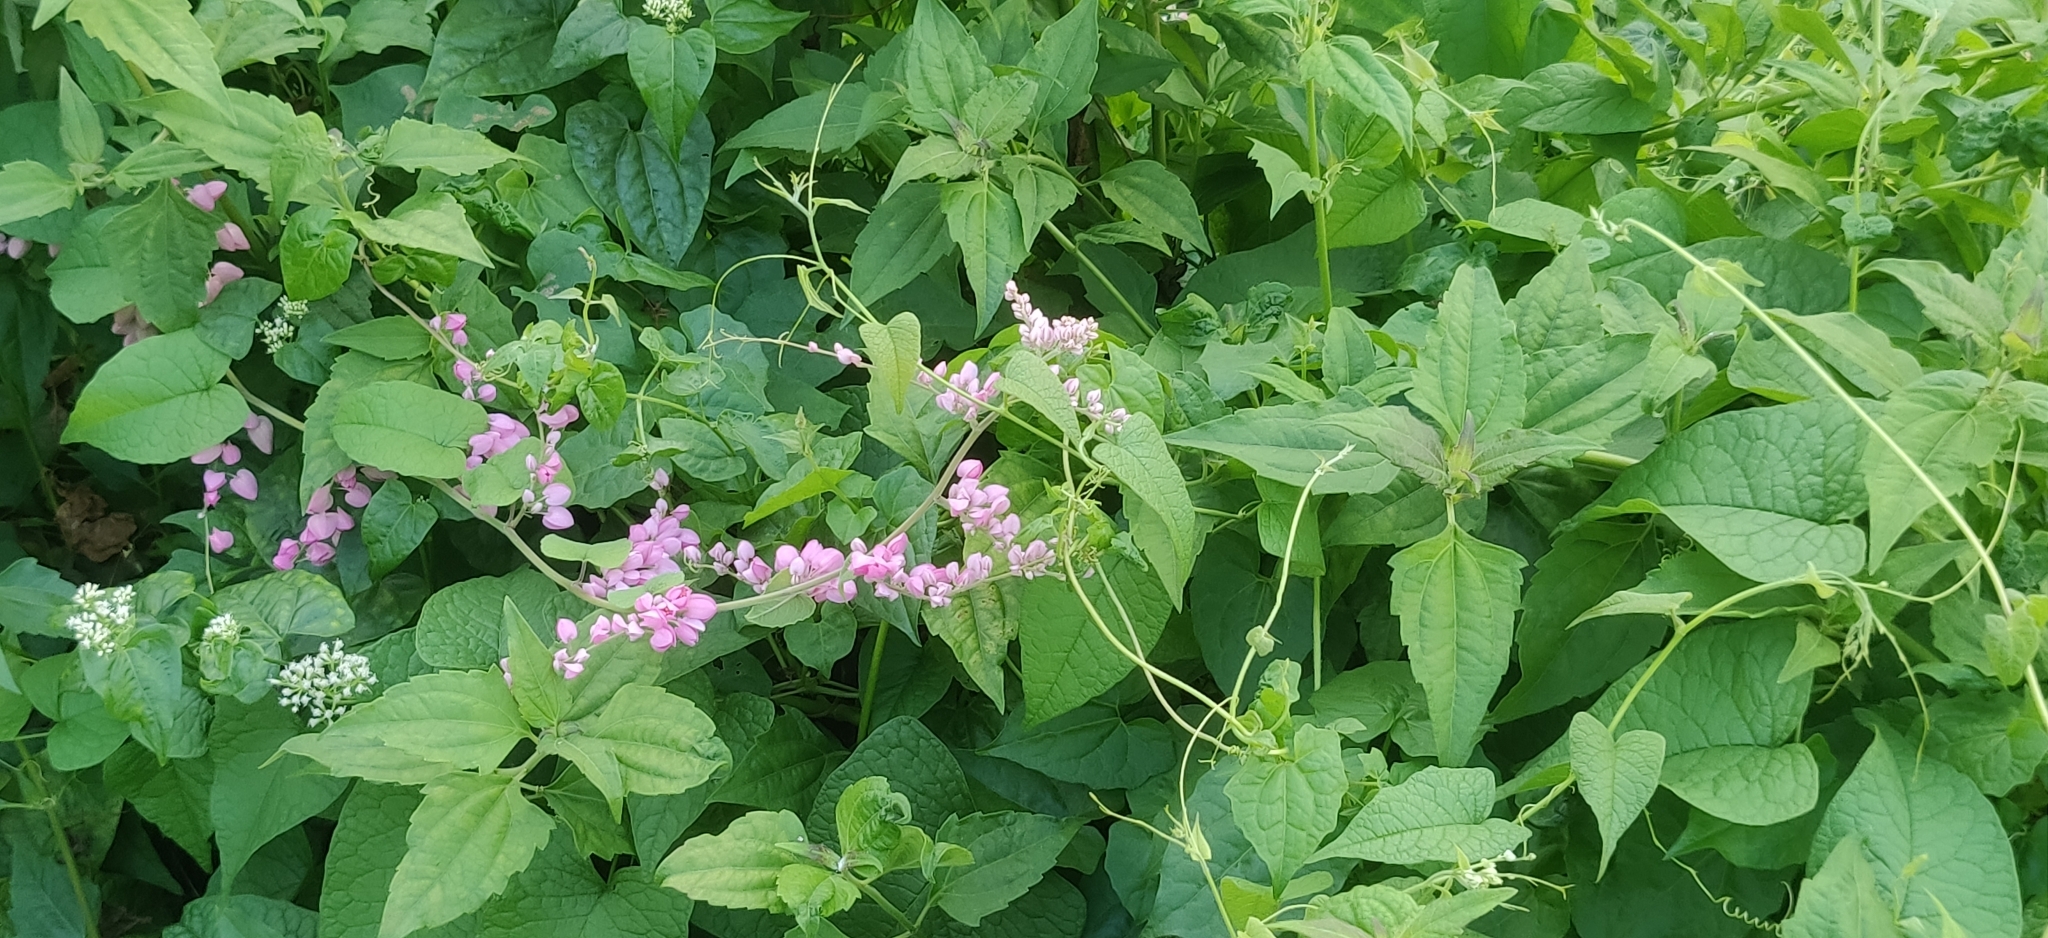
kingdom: Plantae
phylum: Tracheophyta
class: Magnoliopsida
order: Caryophyllales
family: Polygonaceae
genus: Antigonon
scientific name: Antigonon leptopus
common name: Coral vine
